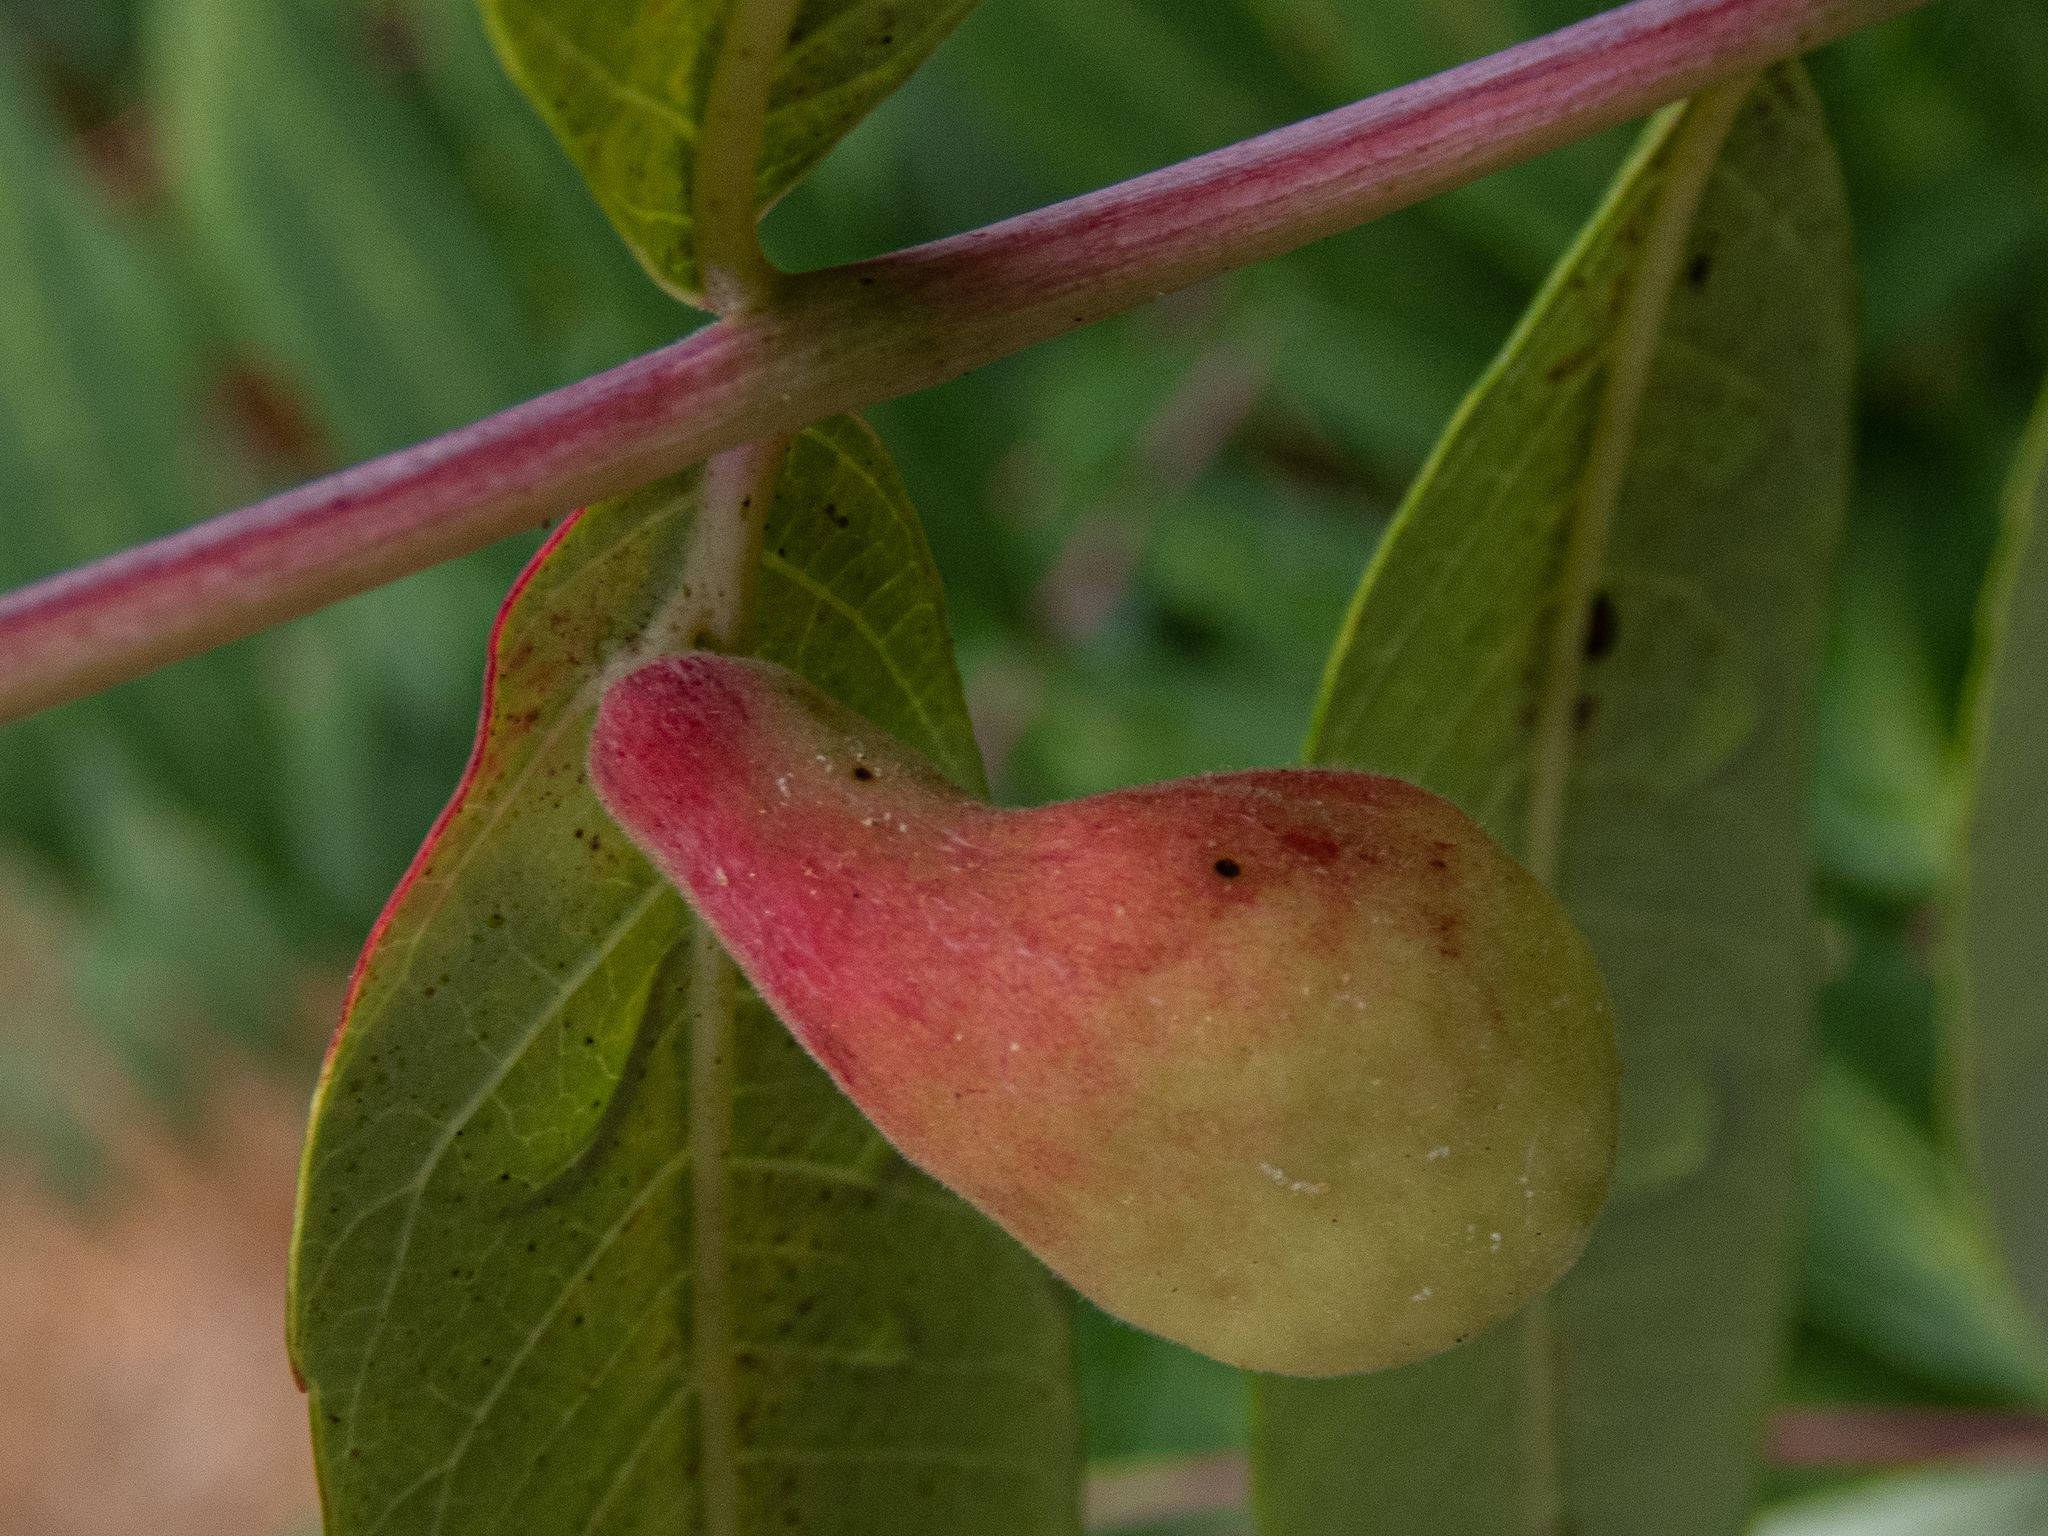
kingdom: Animalia
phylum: Arthropoda
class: Insecta
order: Hemiptera
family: Aphididae
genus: Melaphis
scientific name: Melaphis rhois
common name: Sumac gall aphid
